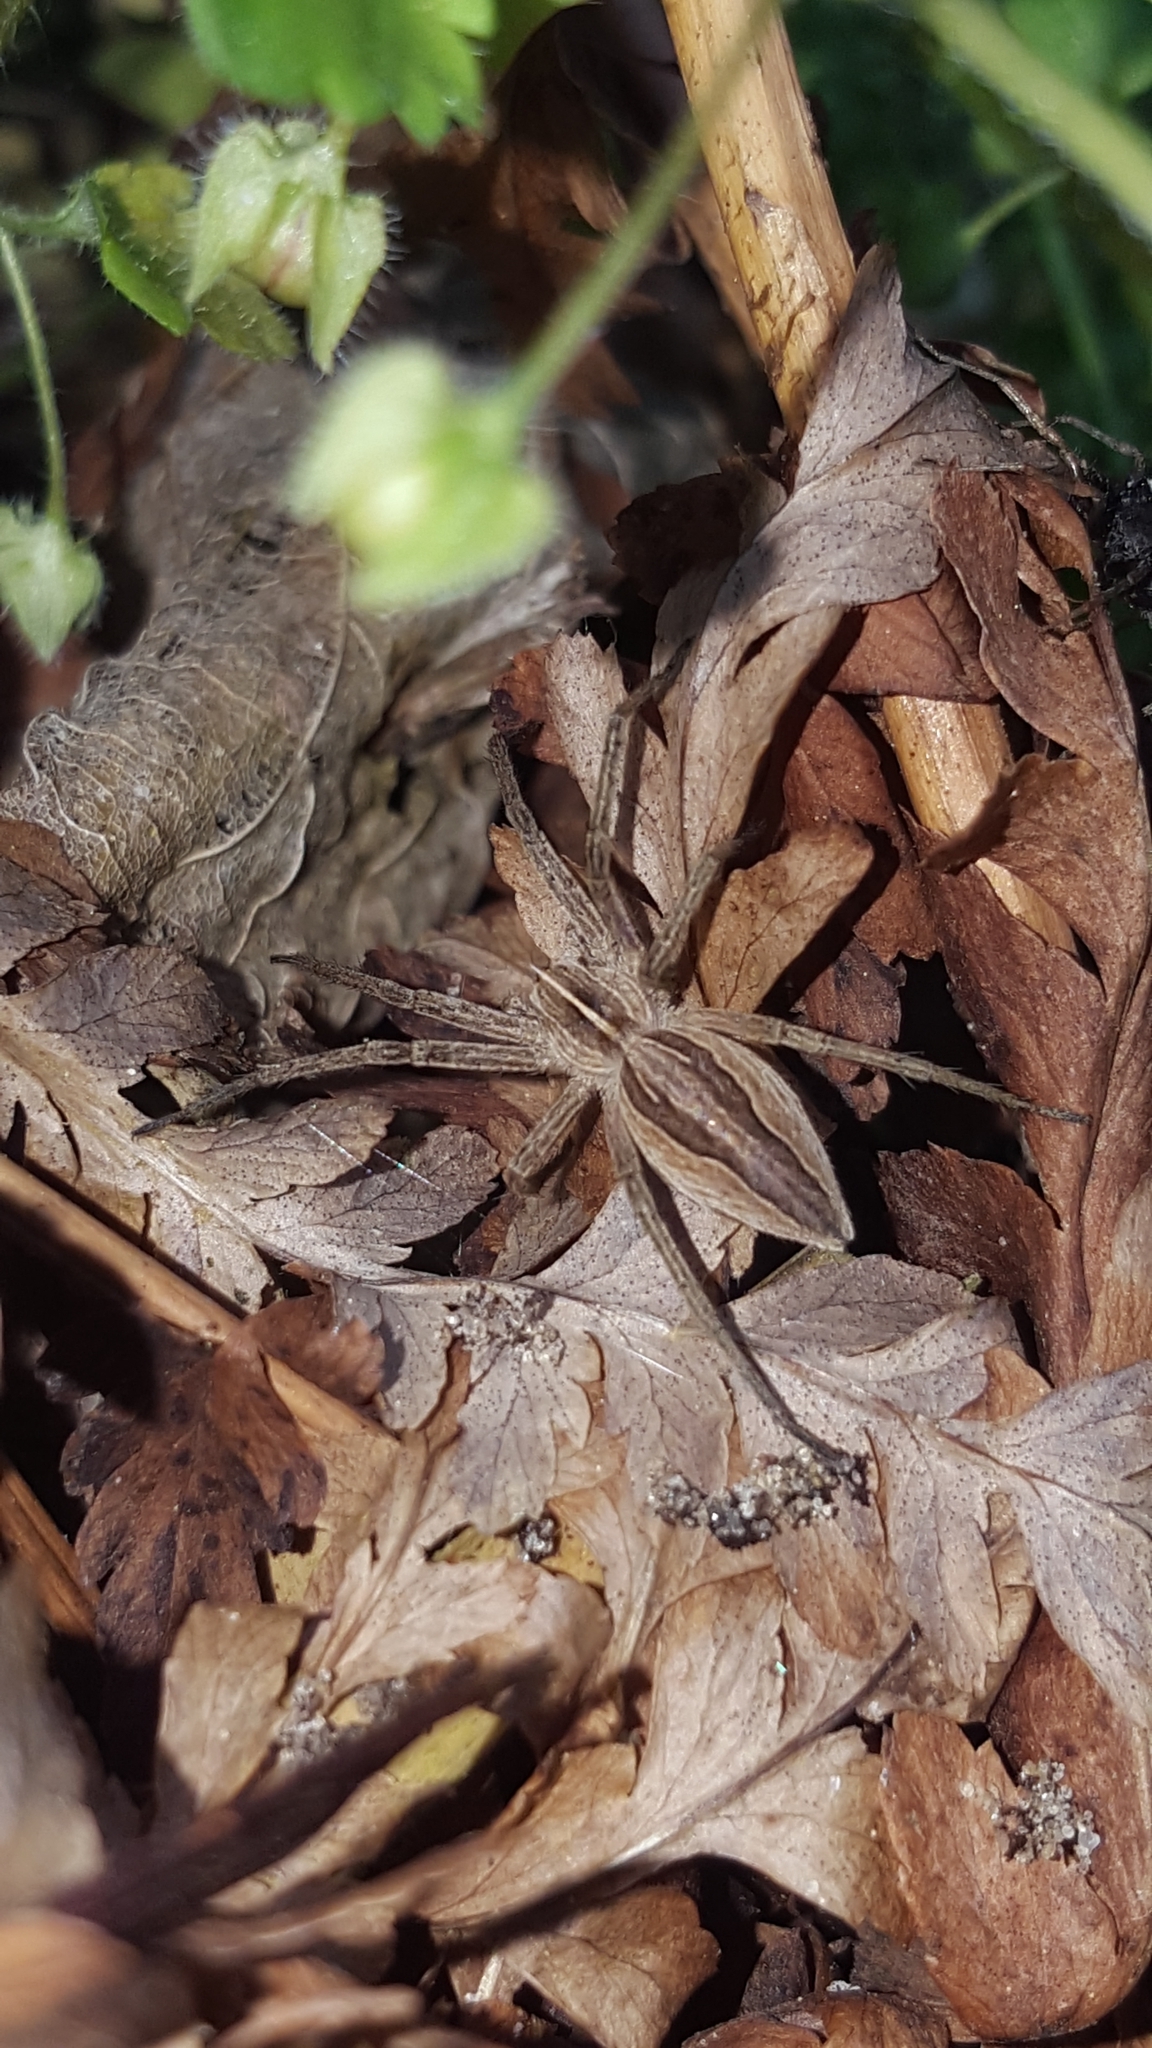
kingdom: Animalia
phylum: Arthropoda
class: Arachnida
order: Araneae
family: Pisauridae
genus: Pisaura
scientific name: Pisaura mirabilis
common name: Tent spider
